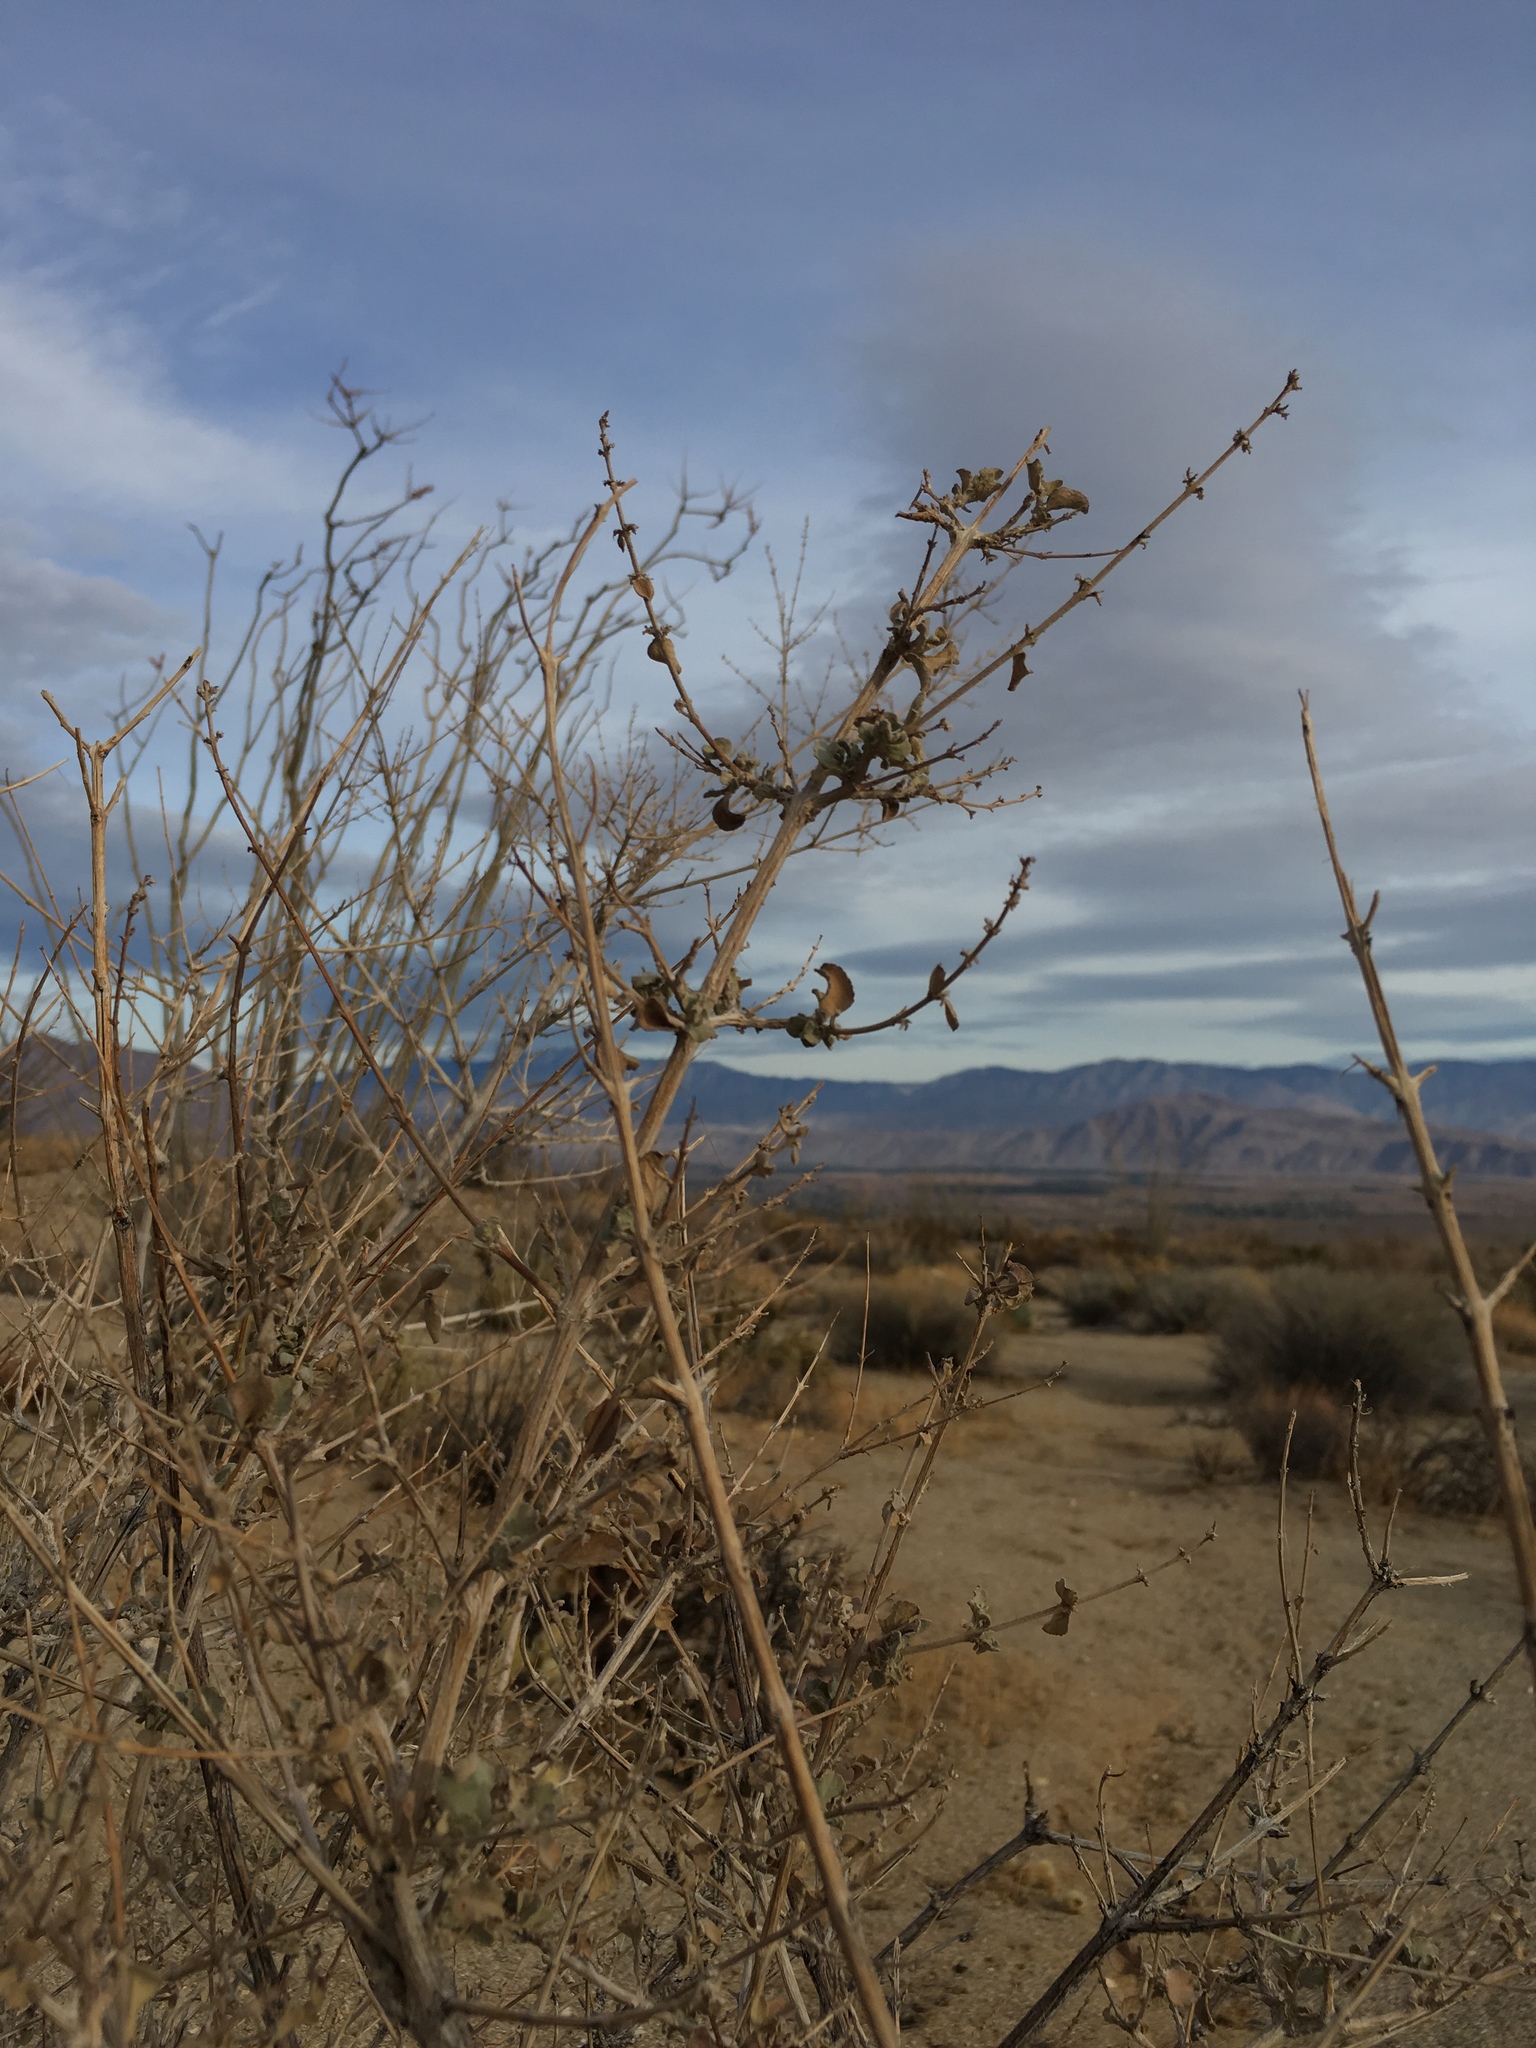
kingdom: Plantae
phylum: Tracheophyta
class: Magnoliopsida
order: Lamiales
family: Lamiaceae
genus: Condea
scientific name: Condea emoryi
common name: Chia
